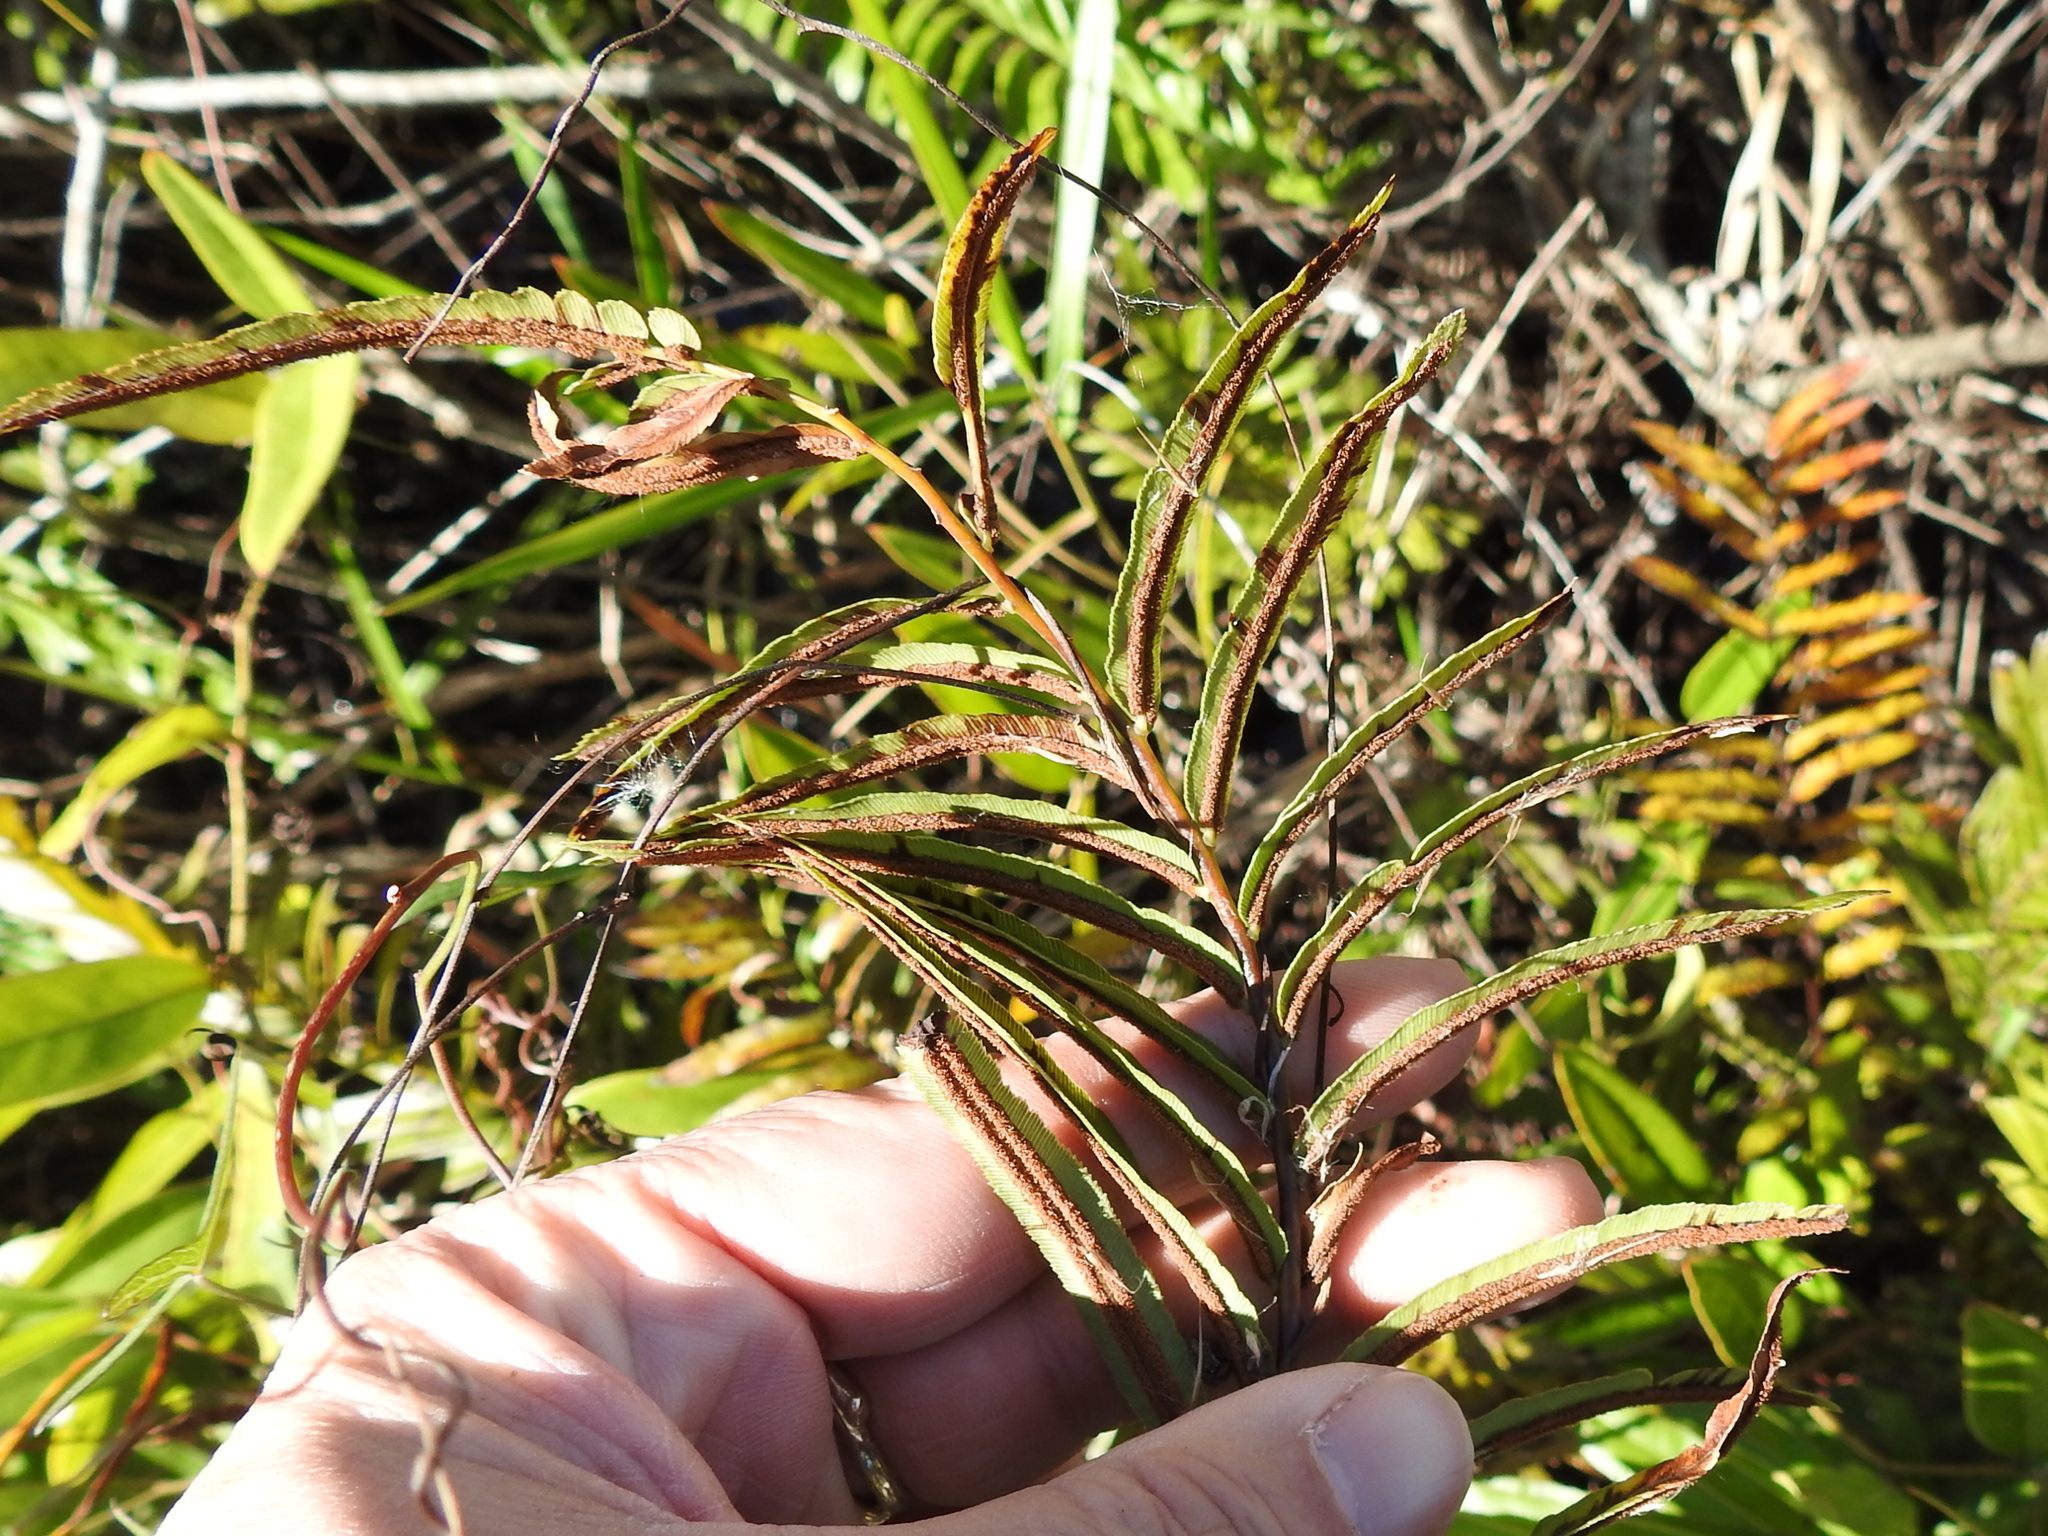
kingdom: Plantae
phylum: Tracheophyta
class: Polypodiopsida
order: Polypodiales
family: Blechnaceae
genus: Telmatoblechnum
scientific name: Telmatoblechnum serrulatum
